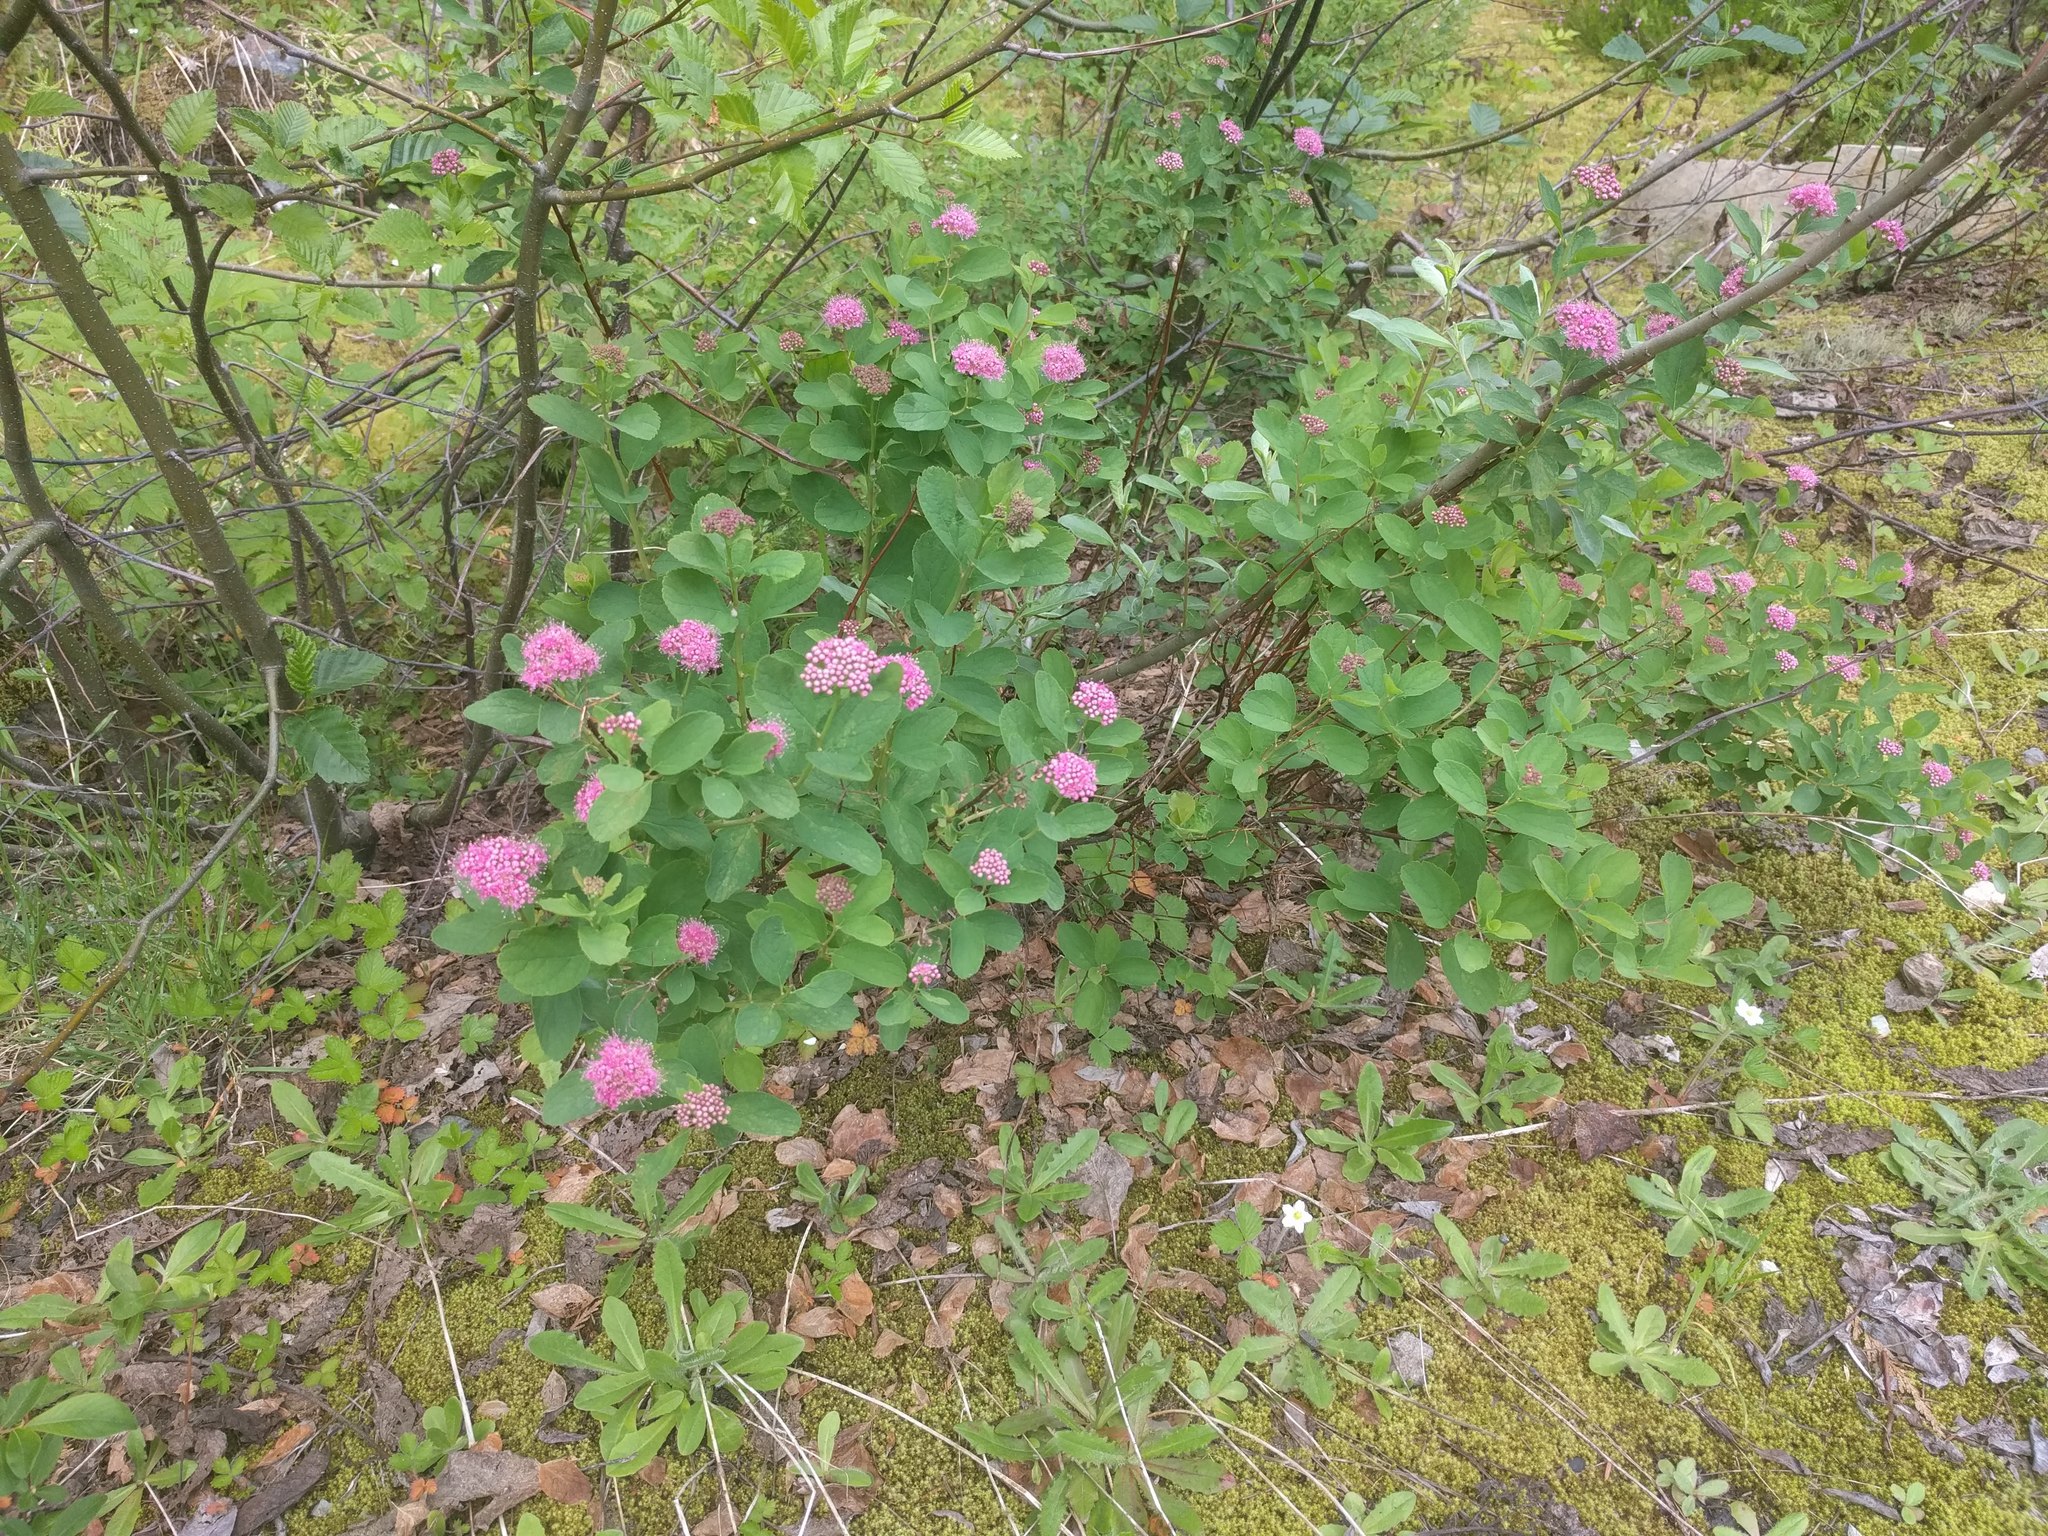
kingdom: Plantae
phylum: Tracheophyta
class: Magnoliopsida
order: Rosales
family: Rosaceae
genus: Spiraea
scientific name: Spiraea splendens
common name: Subalpine meadowsweet
